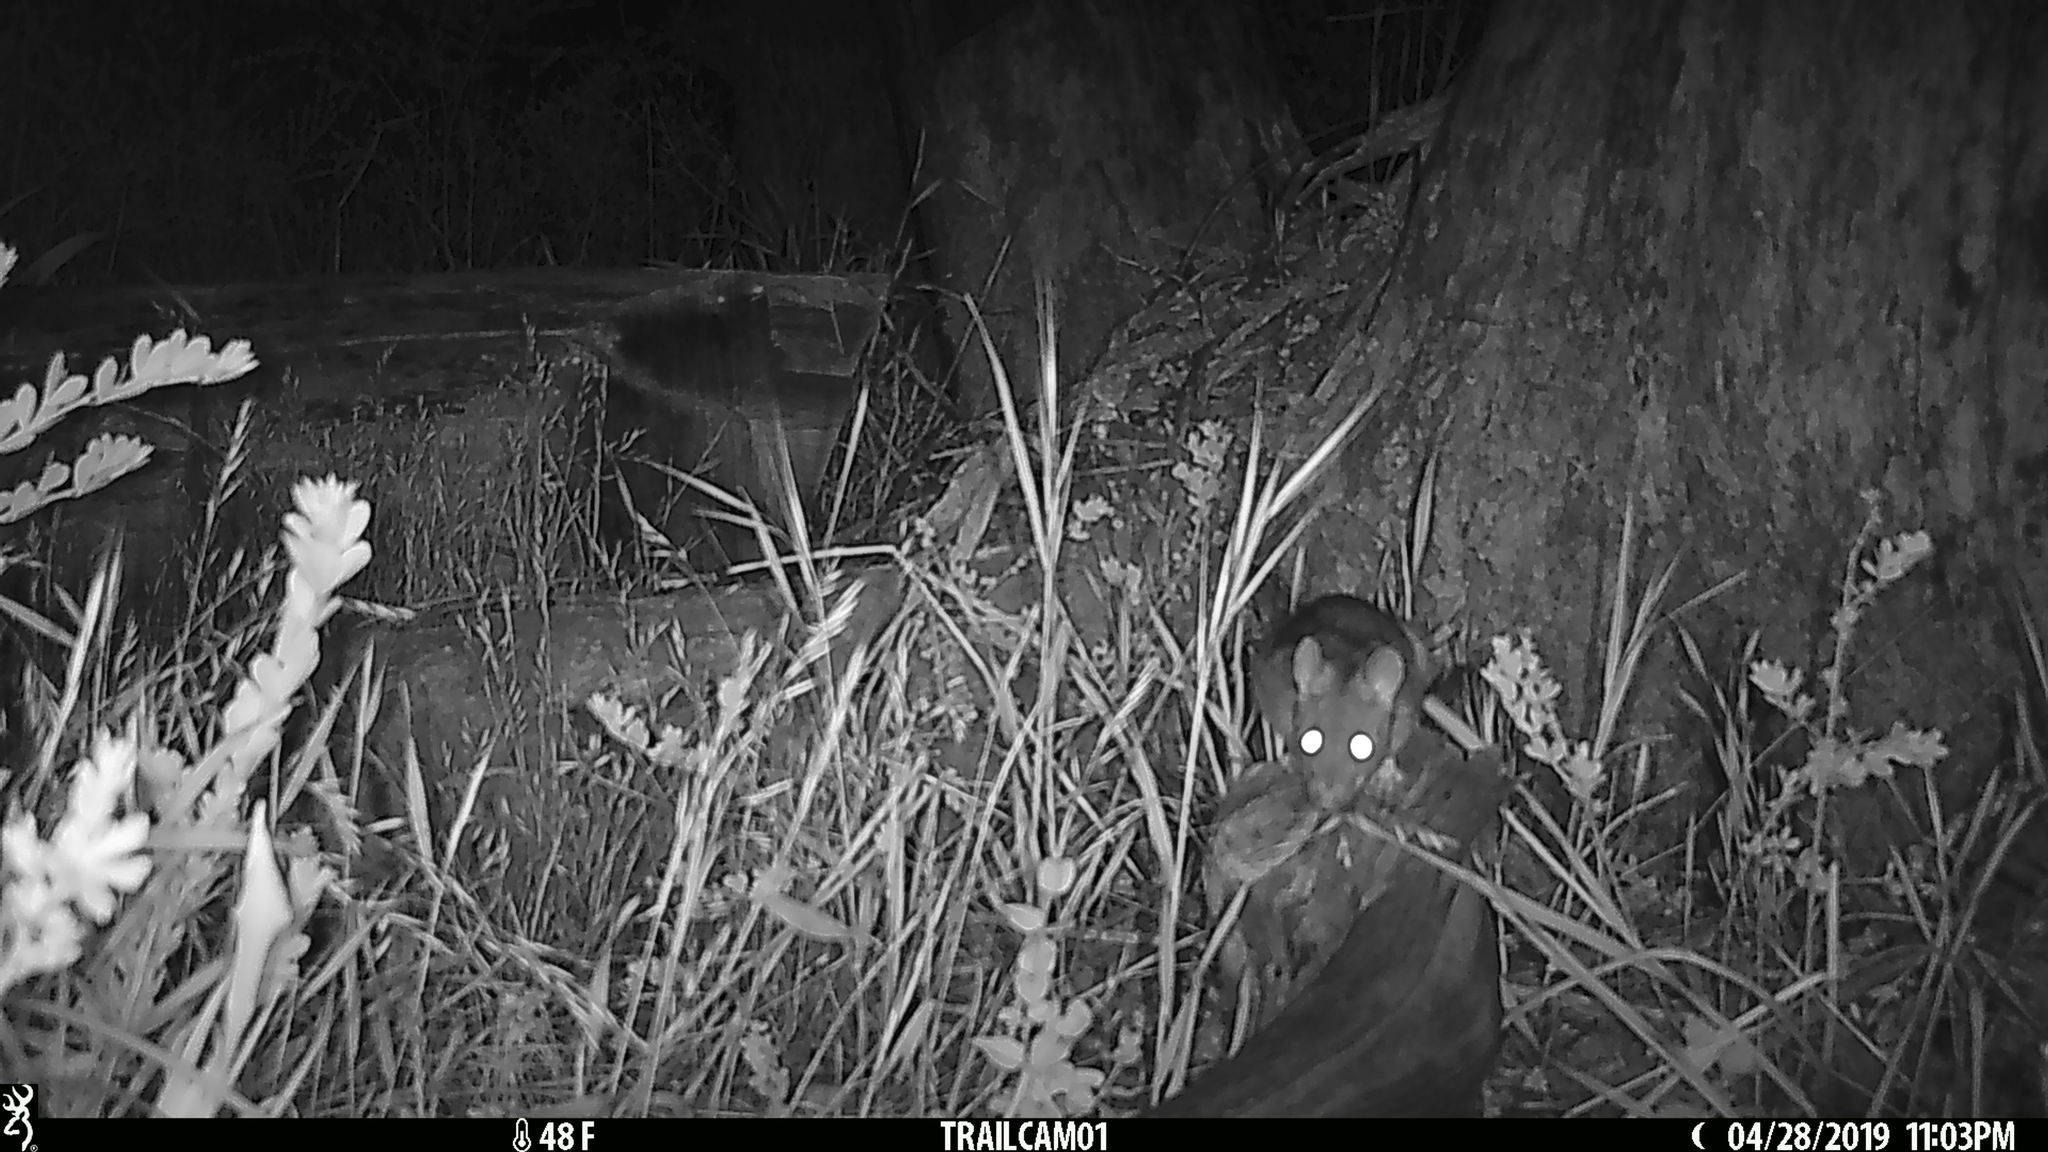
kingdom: Animalia
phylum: Chordata
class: Mammalia
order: Rodentia
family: Cricetidae
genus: Neotoma
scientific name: Neotoma fuscipes
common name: Dusky-footed woodrat
